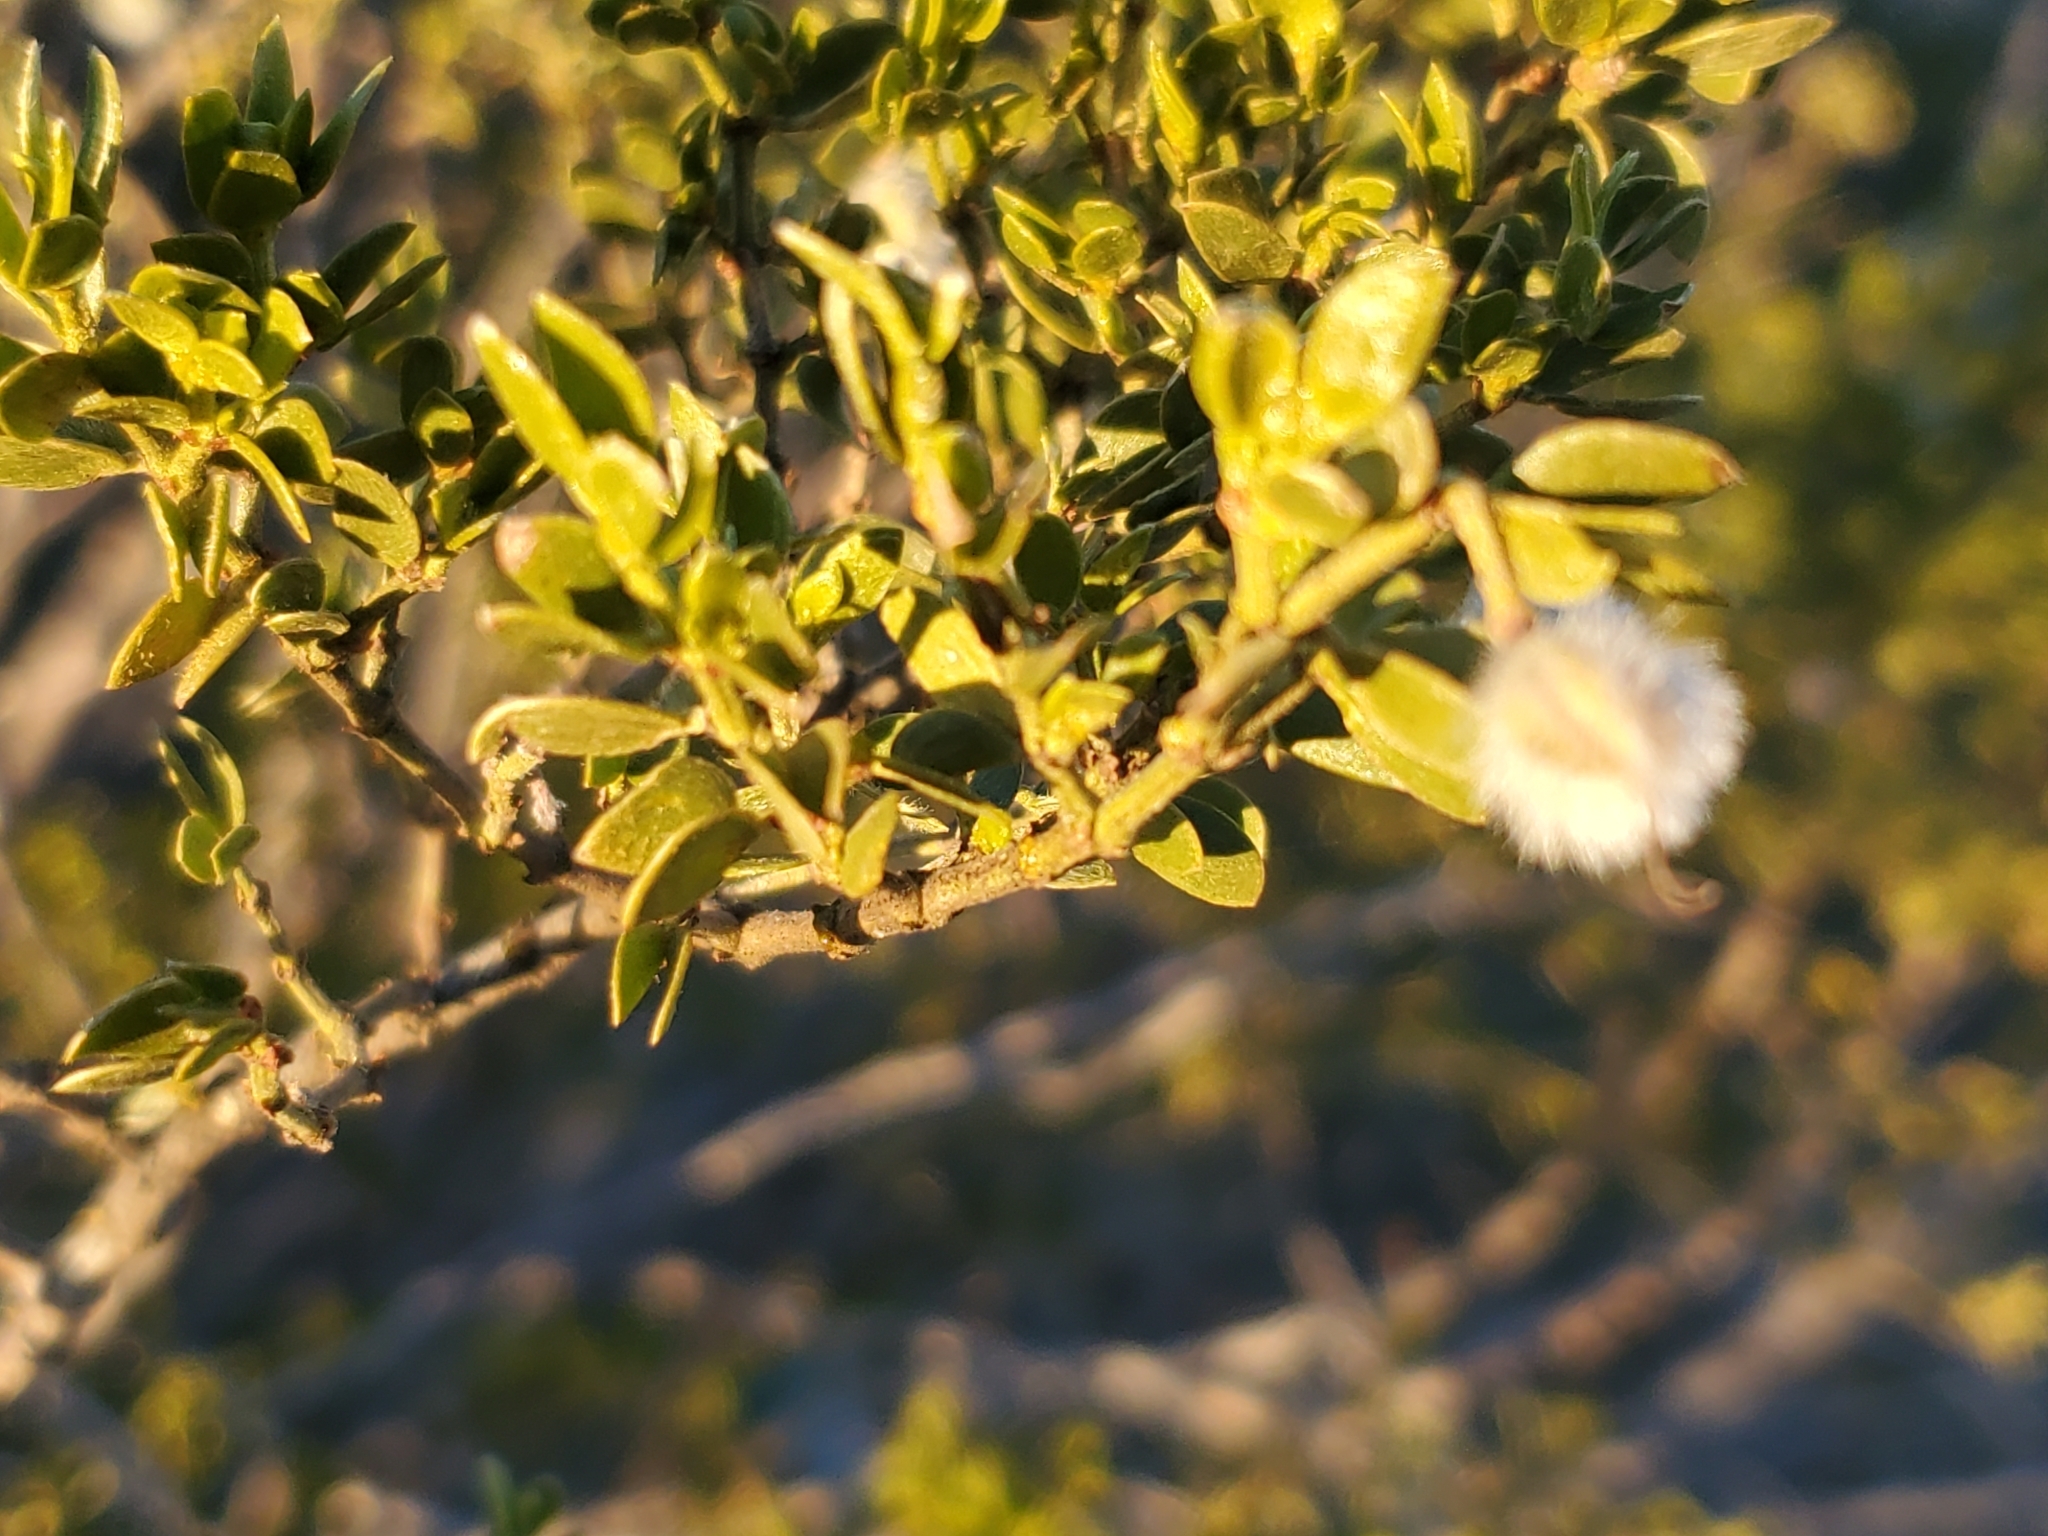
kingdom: Plantae
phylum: Tracheophyta
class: Magnoliopsida
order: Zygophyllales
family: Zygophyllaceae
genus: Larrea
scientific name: Larrea tridentata
